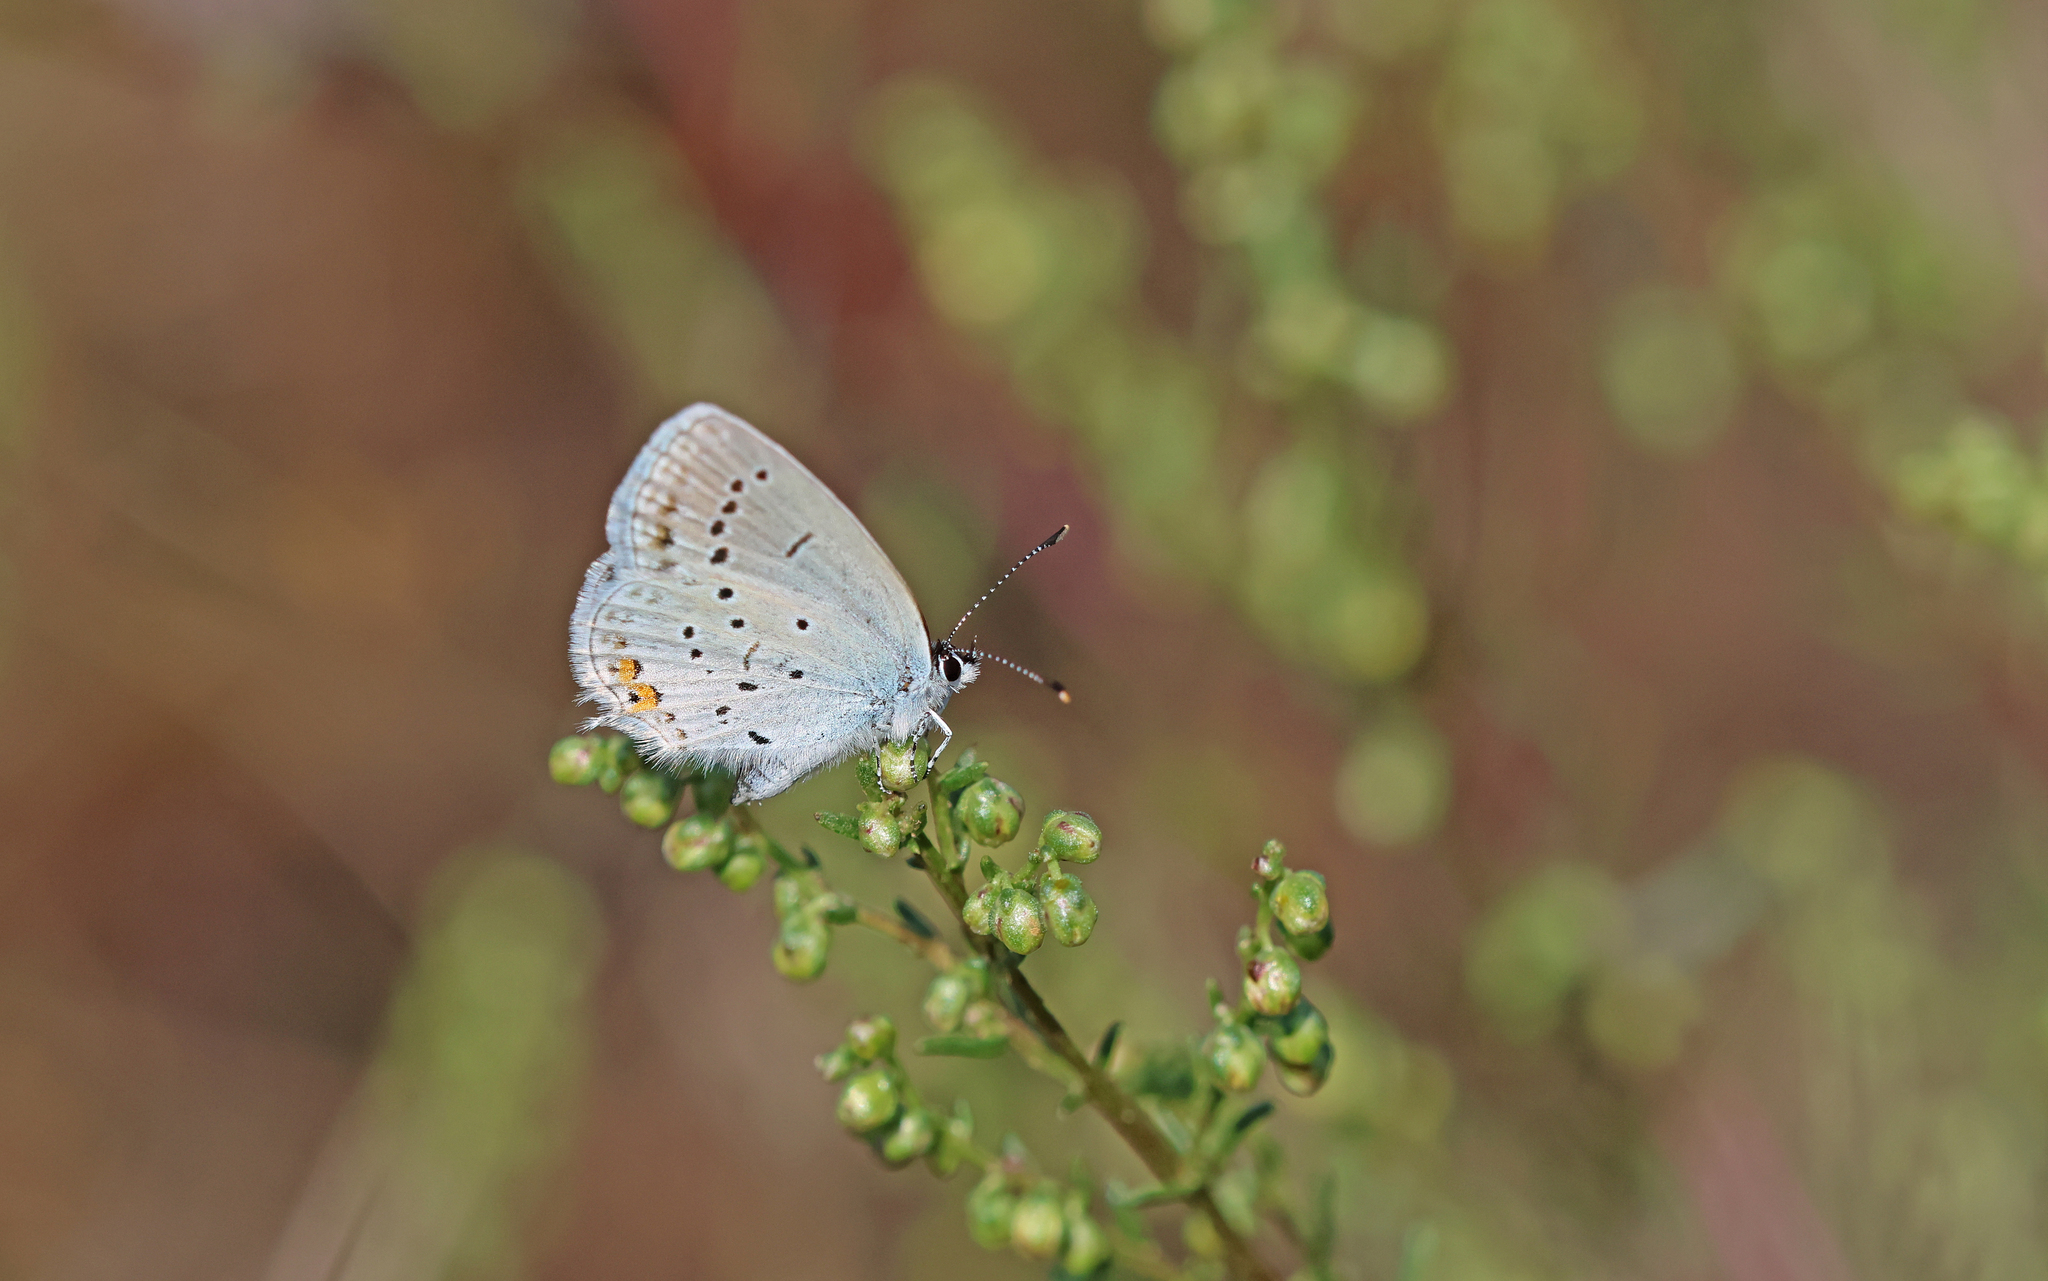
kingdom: Animalia
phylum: Arthropoda
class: Insecta
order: Lepidoptera
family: Lycaenidae
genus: Elkalyce
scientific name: Elkalyce argiades
